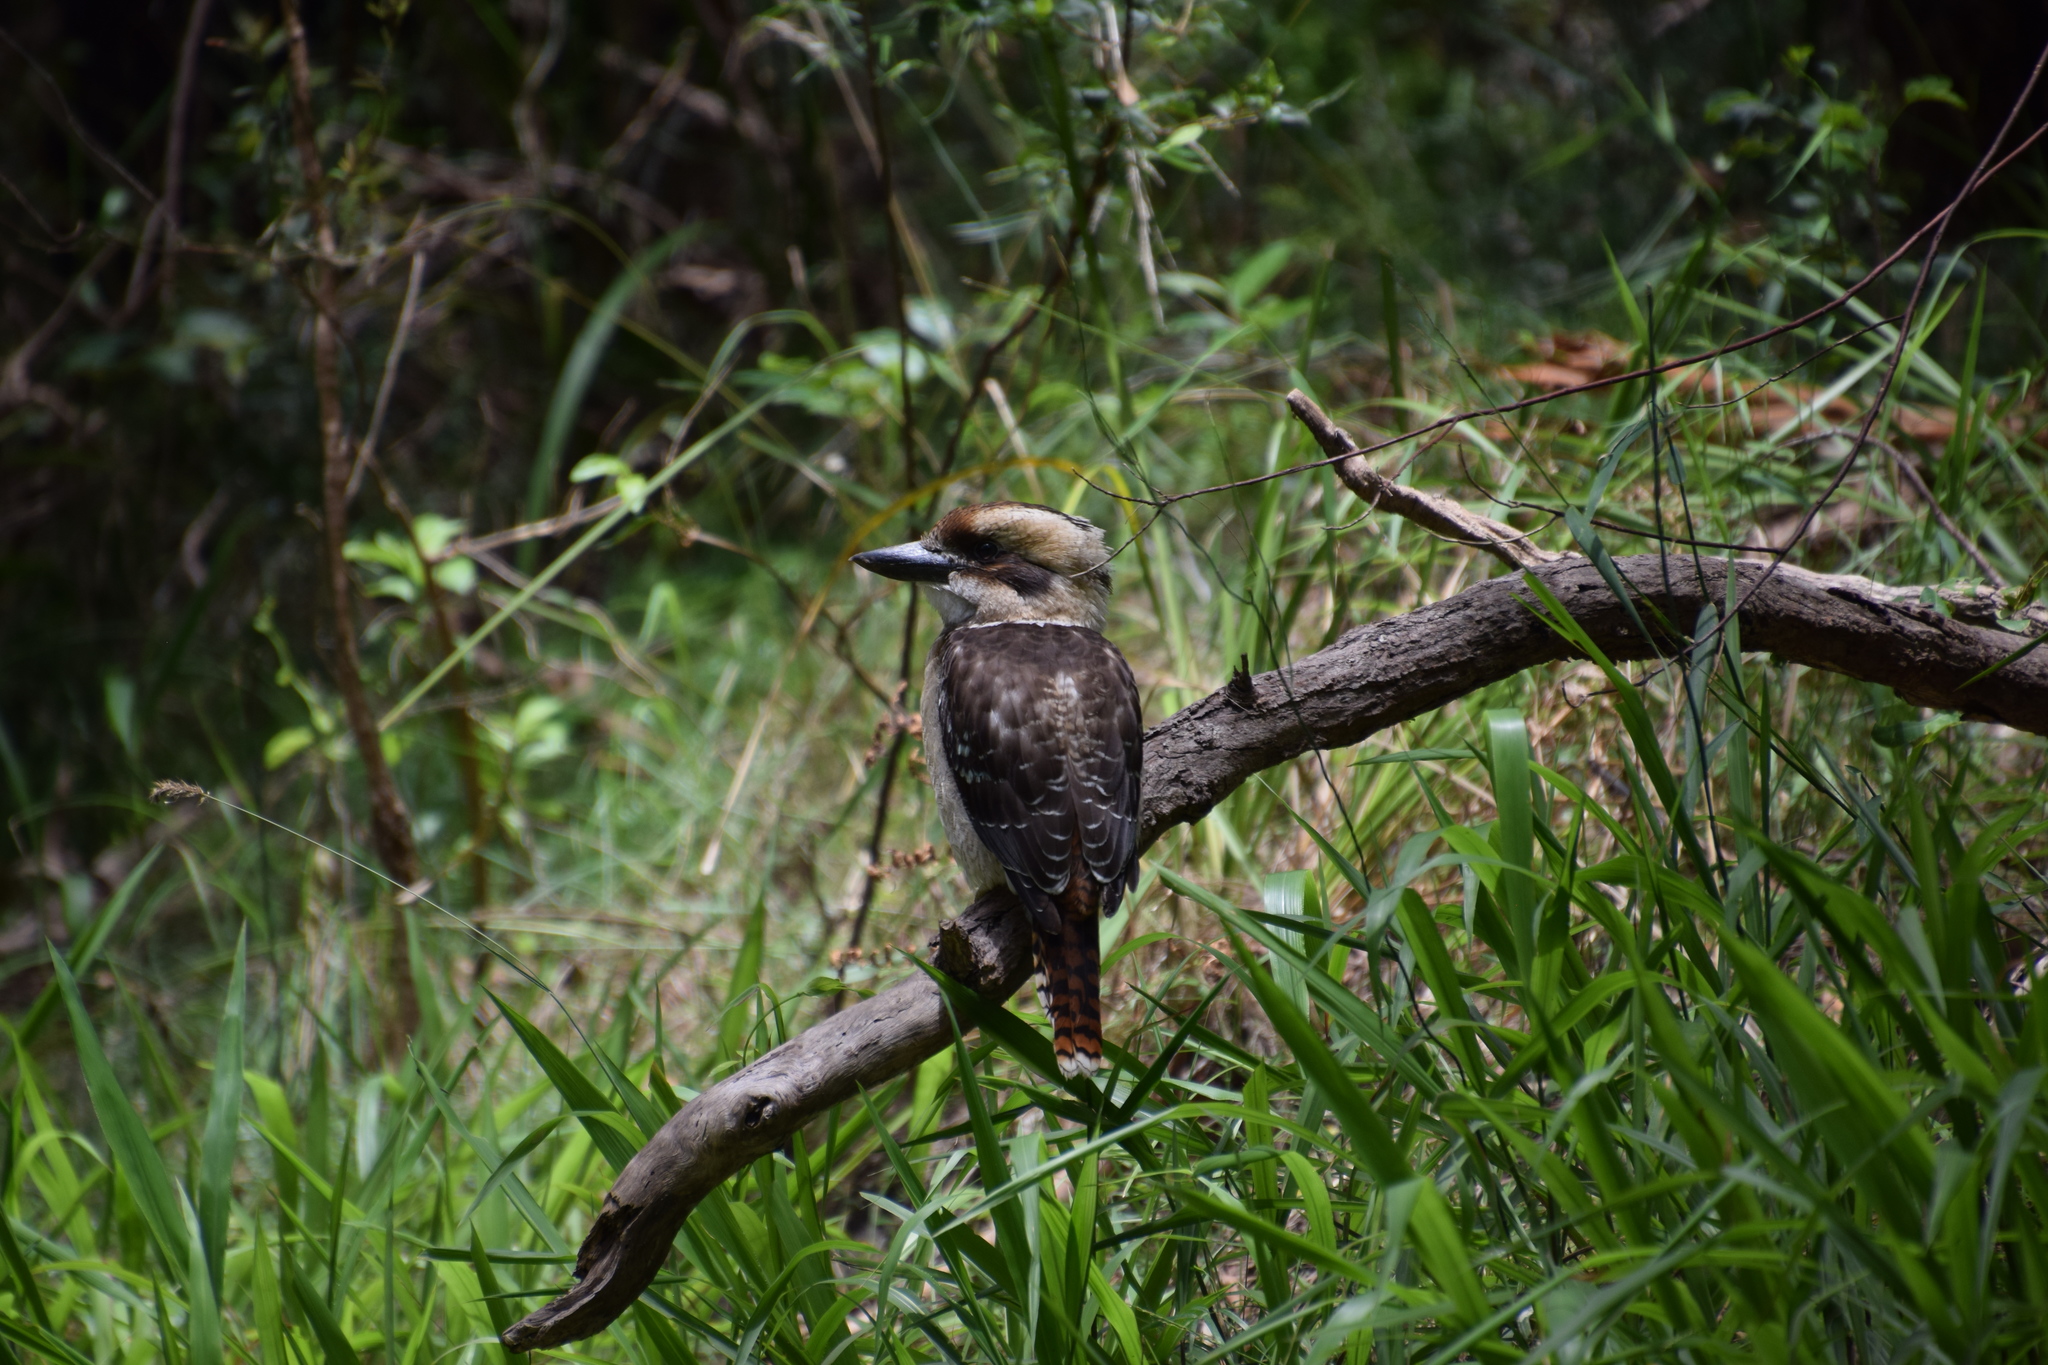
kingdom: Animalia
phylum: Chordata
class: Aves
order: Coraciiformes
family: Alcedinidae
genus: Dacelo
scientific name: Dacelo novaeguineae
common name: Laughing kookaburra
